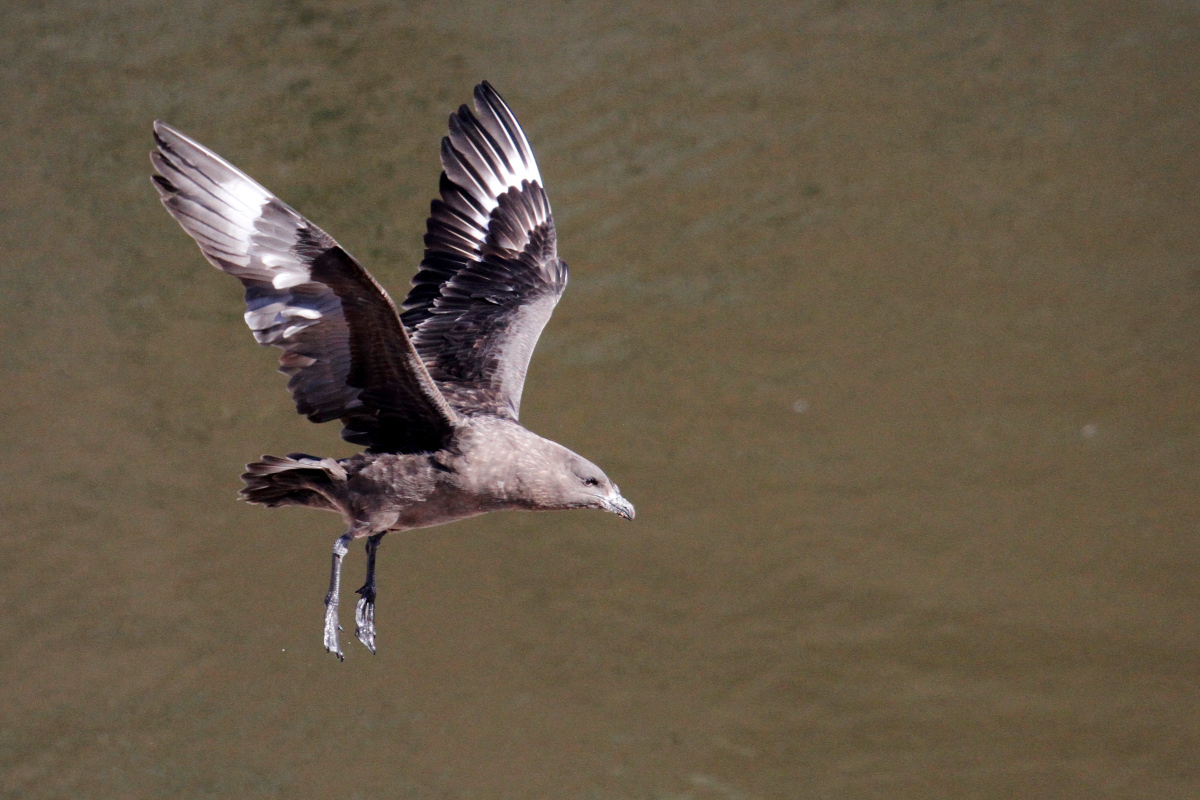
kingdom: Animalia
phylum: Chordata
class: Aves
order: Charadriiformes
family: Stercorariidae
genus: Stercorarius
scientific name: Stercorarius antarcticus
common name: Brown skua
